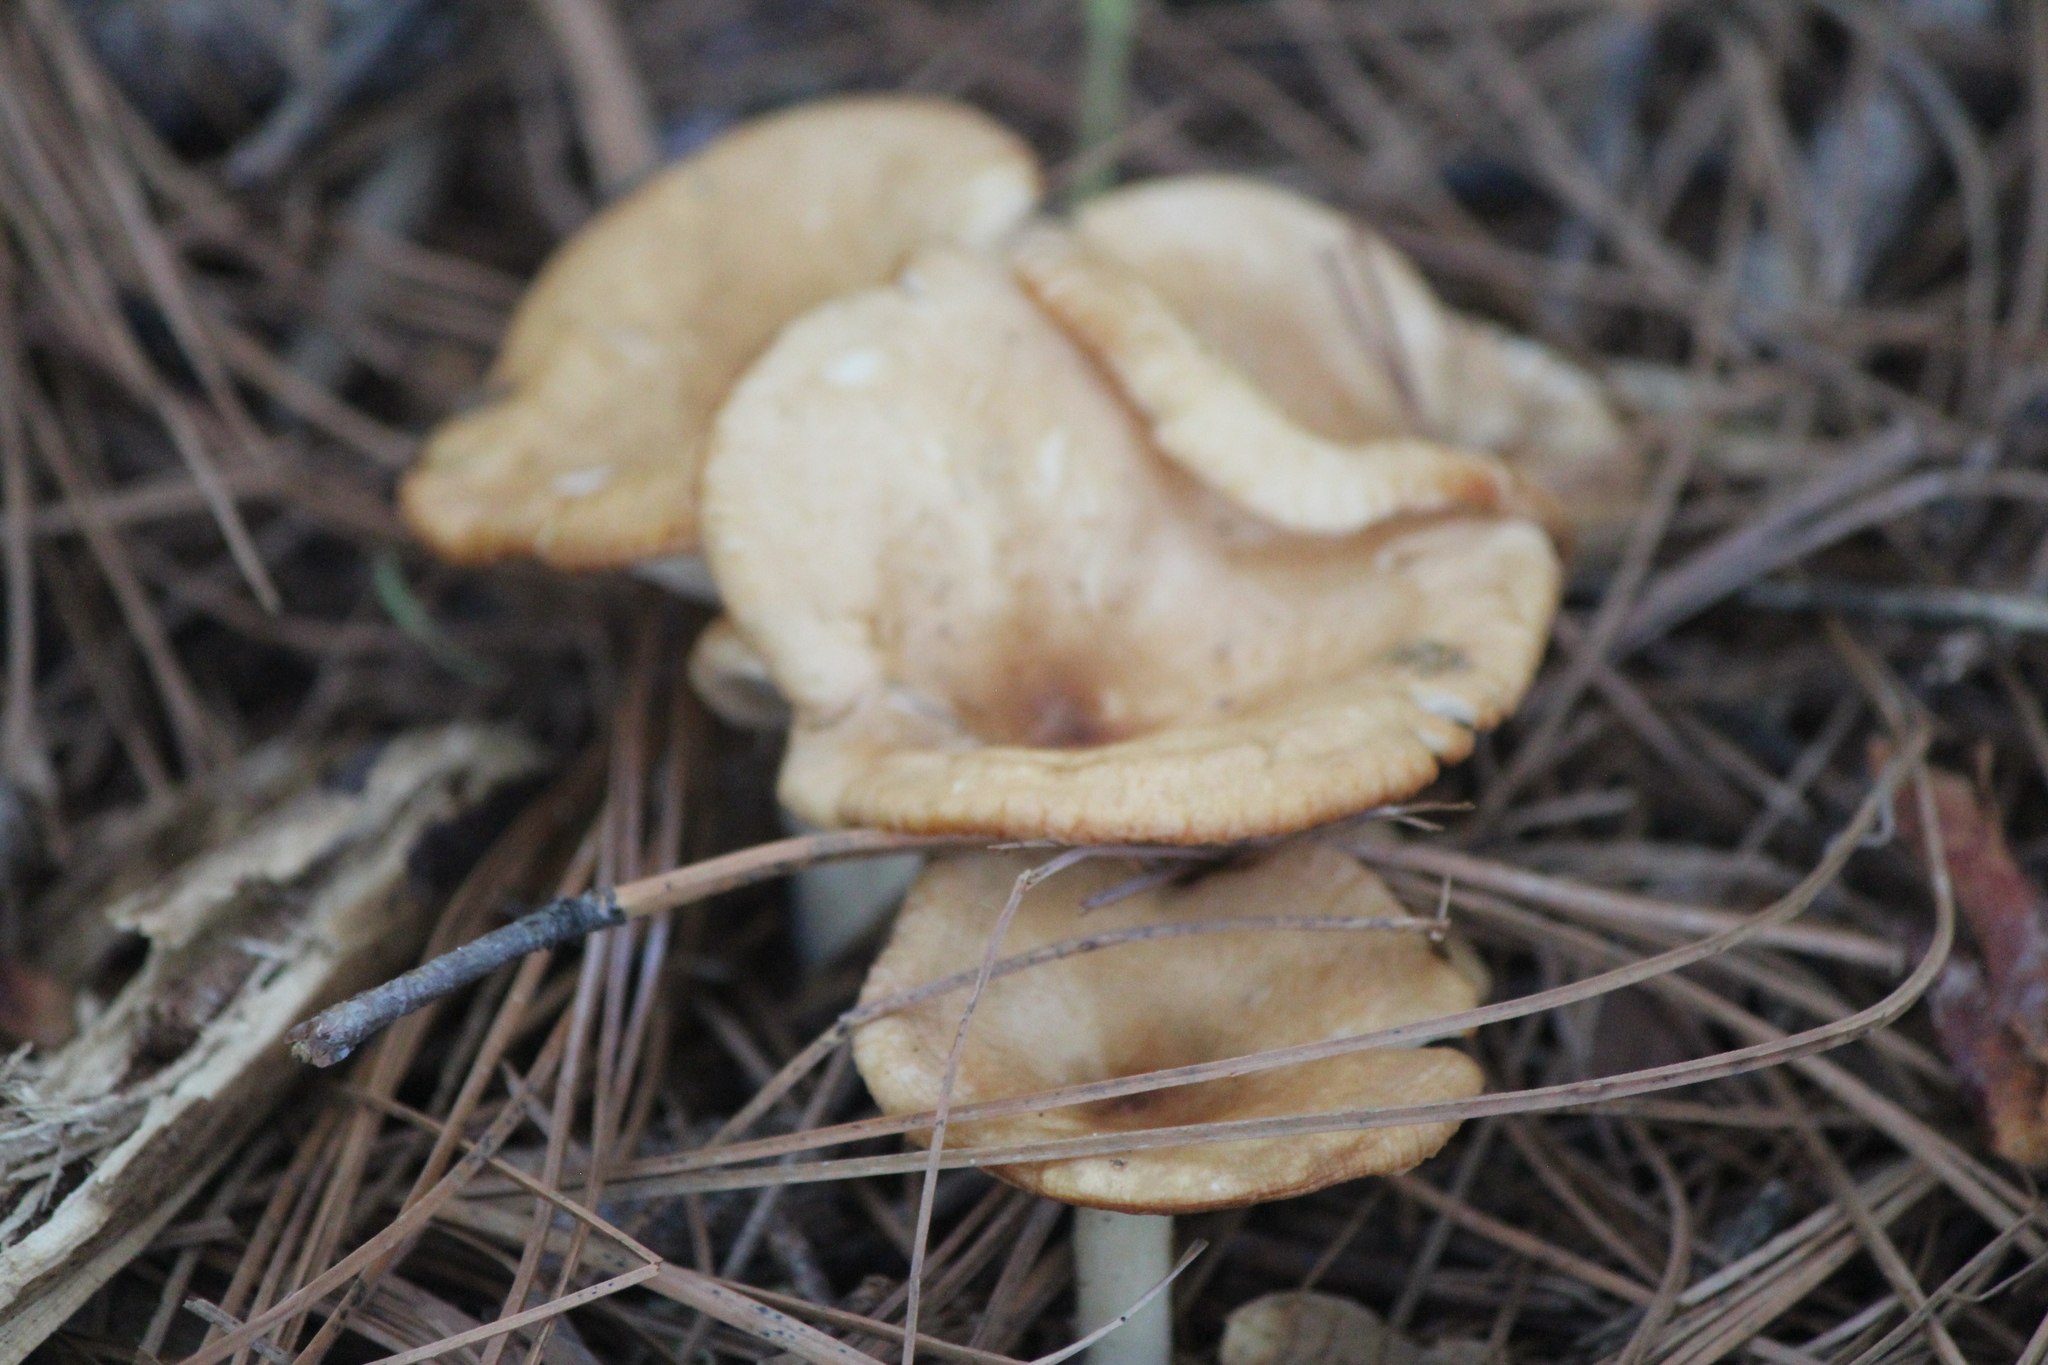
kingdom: Fungi
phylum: Basidiomycota
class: Agaricomycetes
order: Agaricales
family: Tricholomataceae
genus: Infundibulicybe
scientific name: Infundibulicybe gibba
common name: Common funnel
